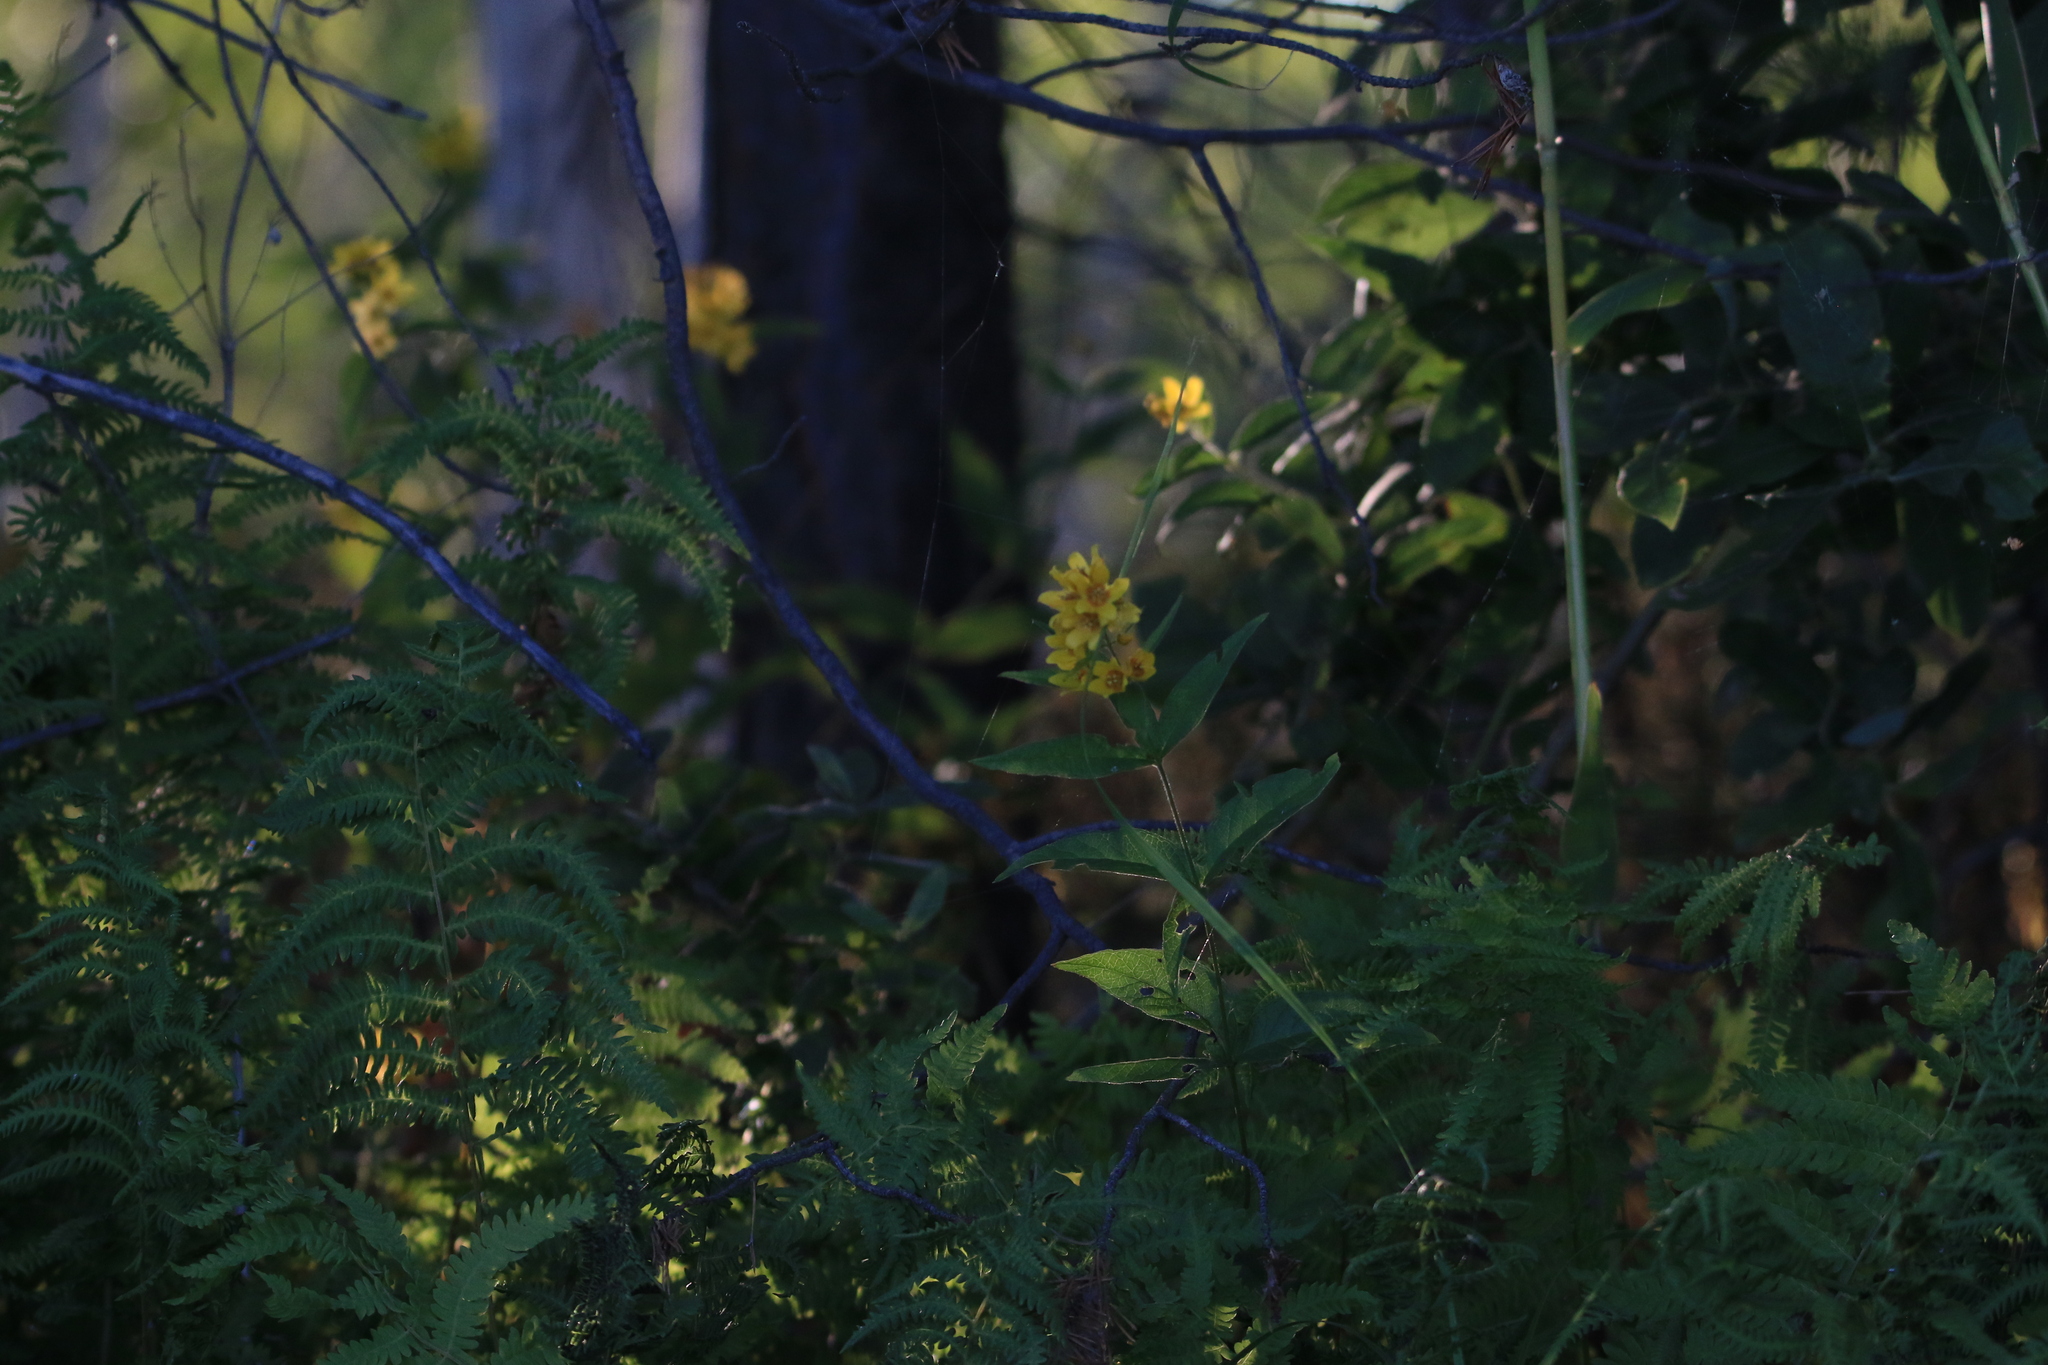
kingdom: Plantae
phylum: Tracheophyta
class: Magnoliopsida
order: Ericales
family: Primulaceae
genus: Lysimachia
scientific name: Lysimachia vulgaris
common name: Yellow loosestrife
